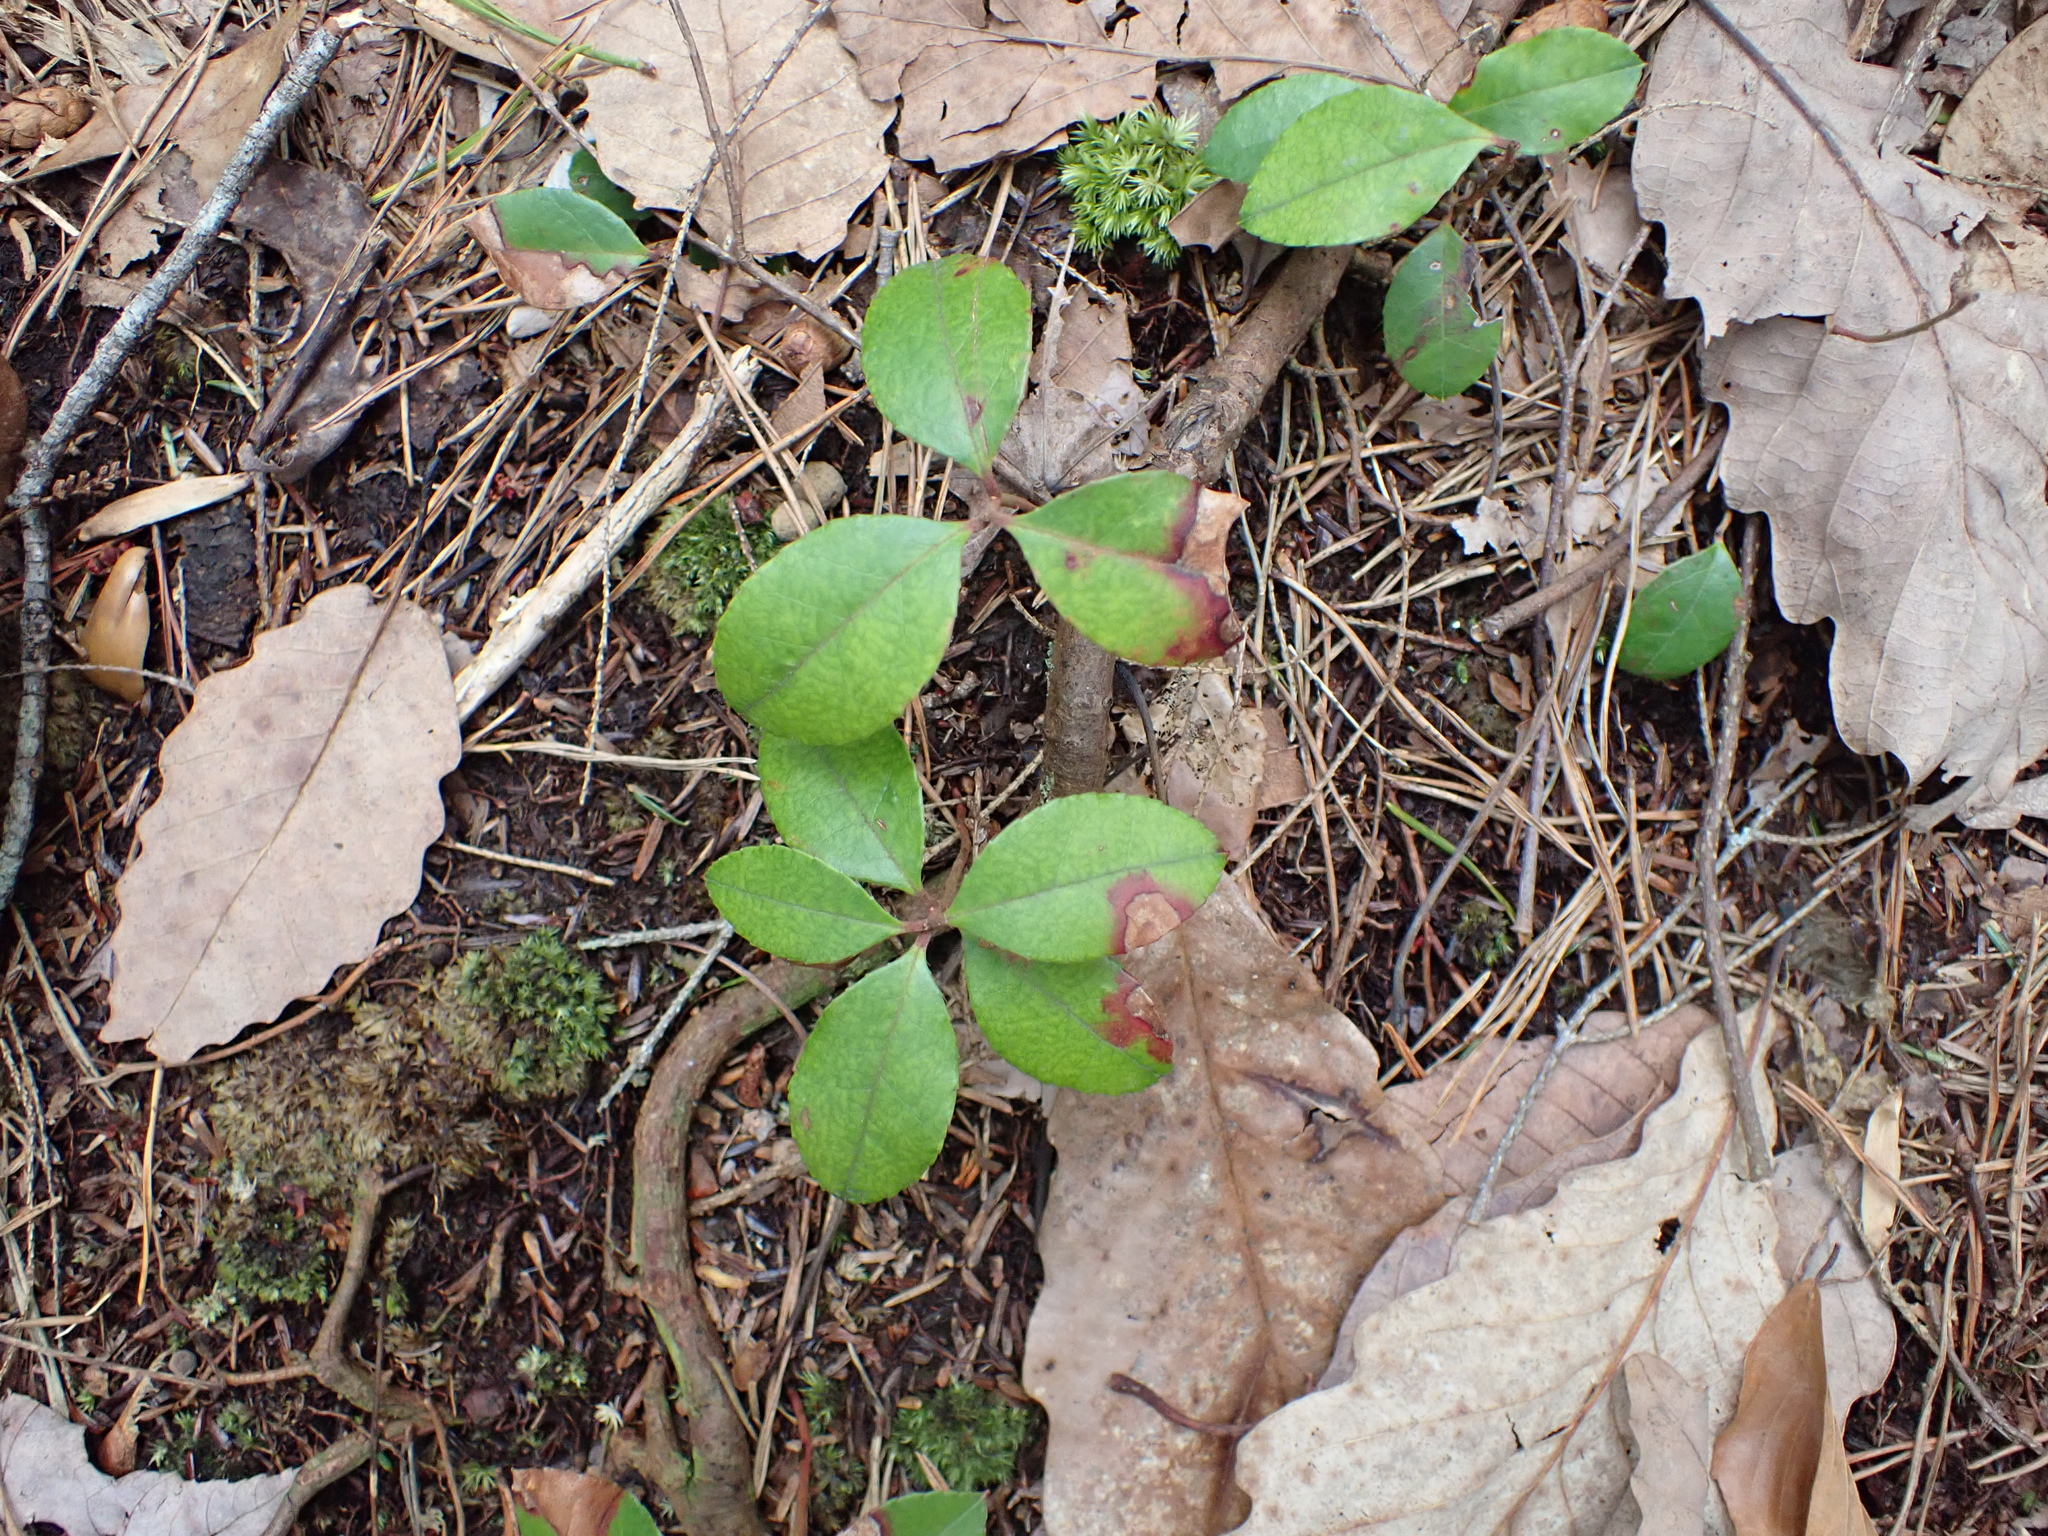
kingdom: Plantae
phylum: Tracheophyta
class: Magnoliopsida
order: Ericales
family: Ericaceae
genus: Gaultheria
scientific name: Gaultheria procumbens
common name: Checkerberry
